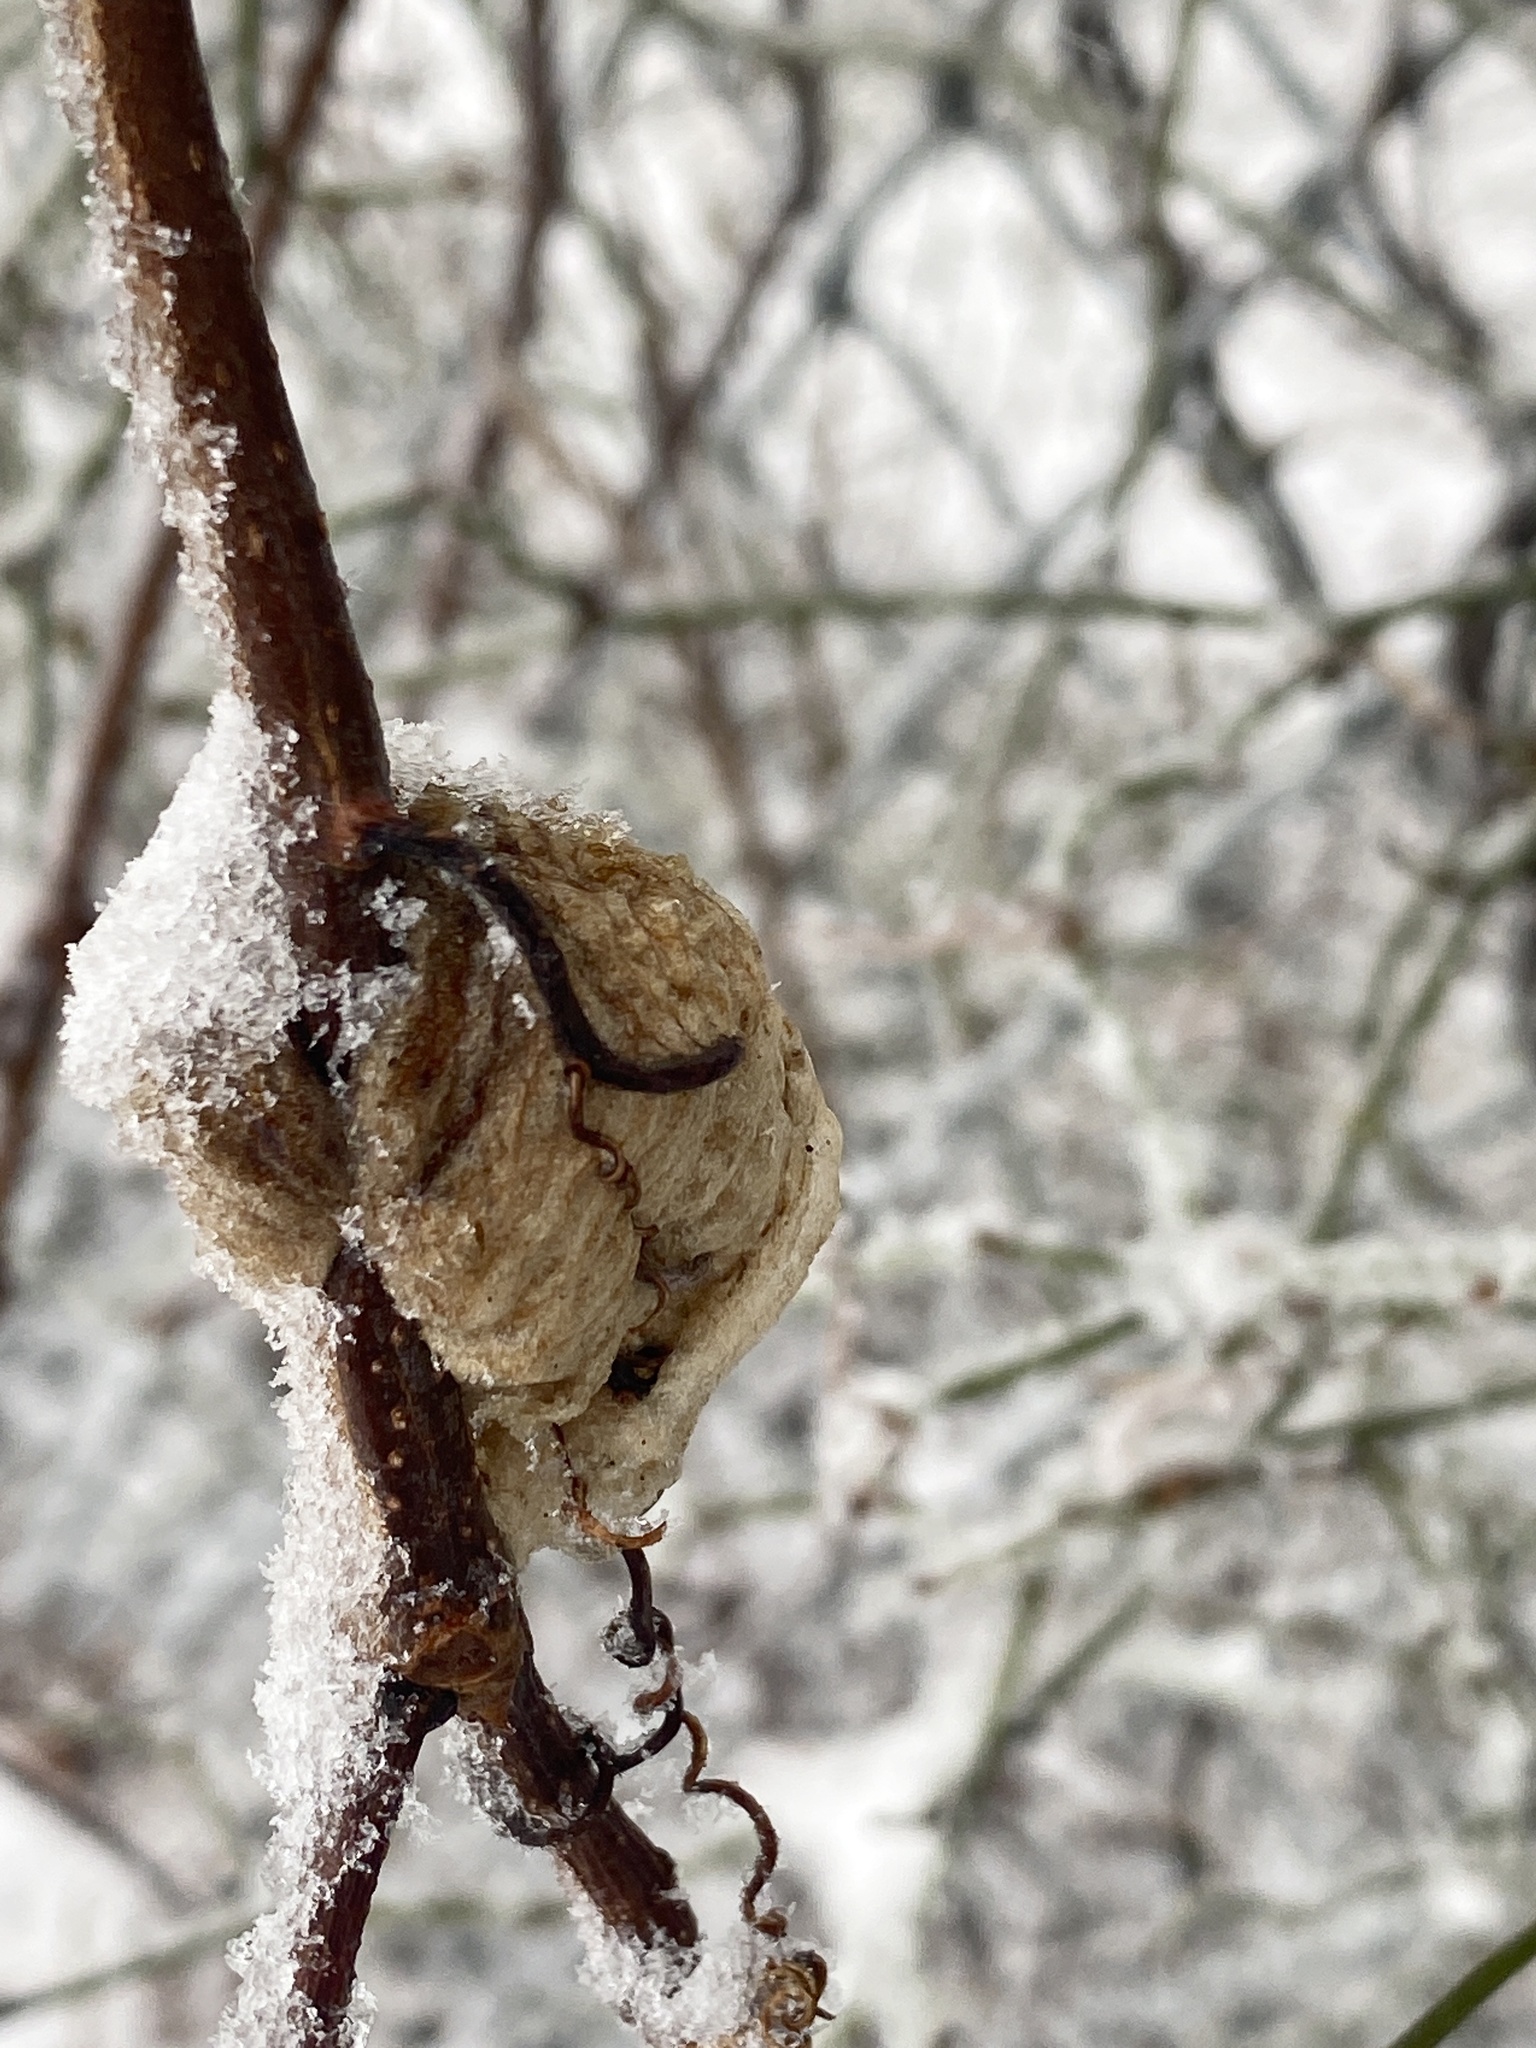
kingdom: Animalia
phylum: Arthropoda
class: Insecta
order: Mantodea
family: Mantidae
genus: Tenodera
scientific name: Tenodera sinensis
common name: Chinese mantis
